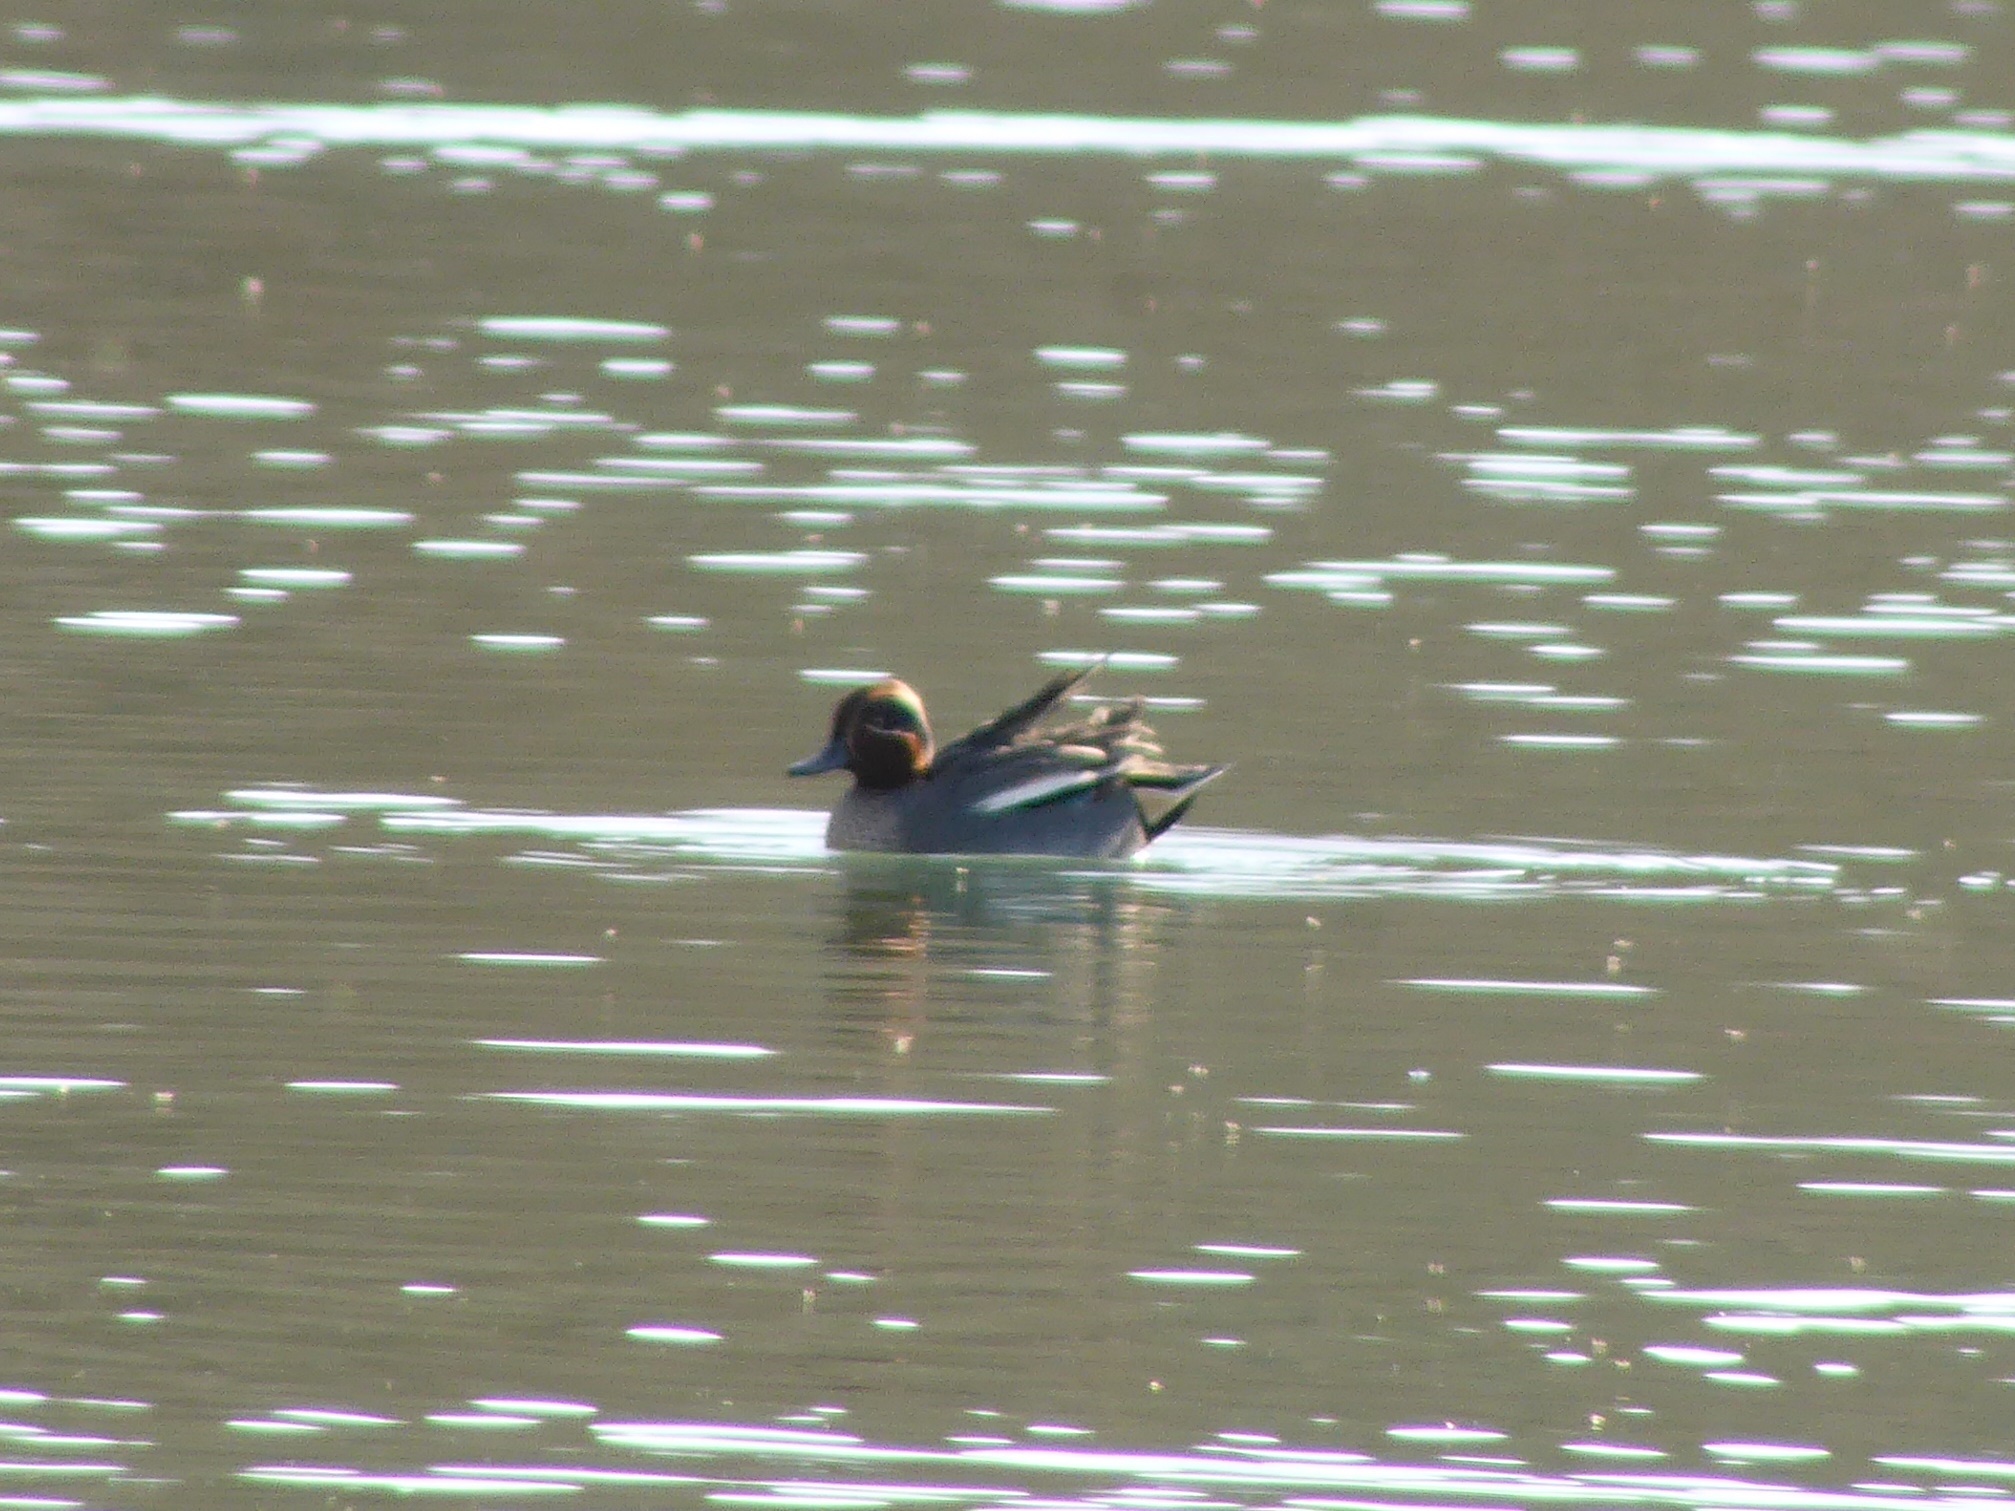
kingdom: Animalia
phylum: Chordata
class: Aves
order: Anseriformes
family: Anatidae
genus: Anas
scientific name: Anas crecca
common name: Eurasian teal
